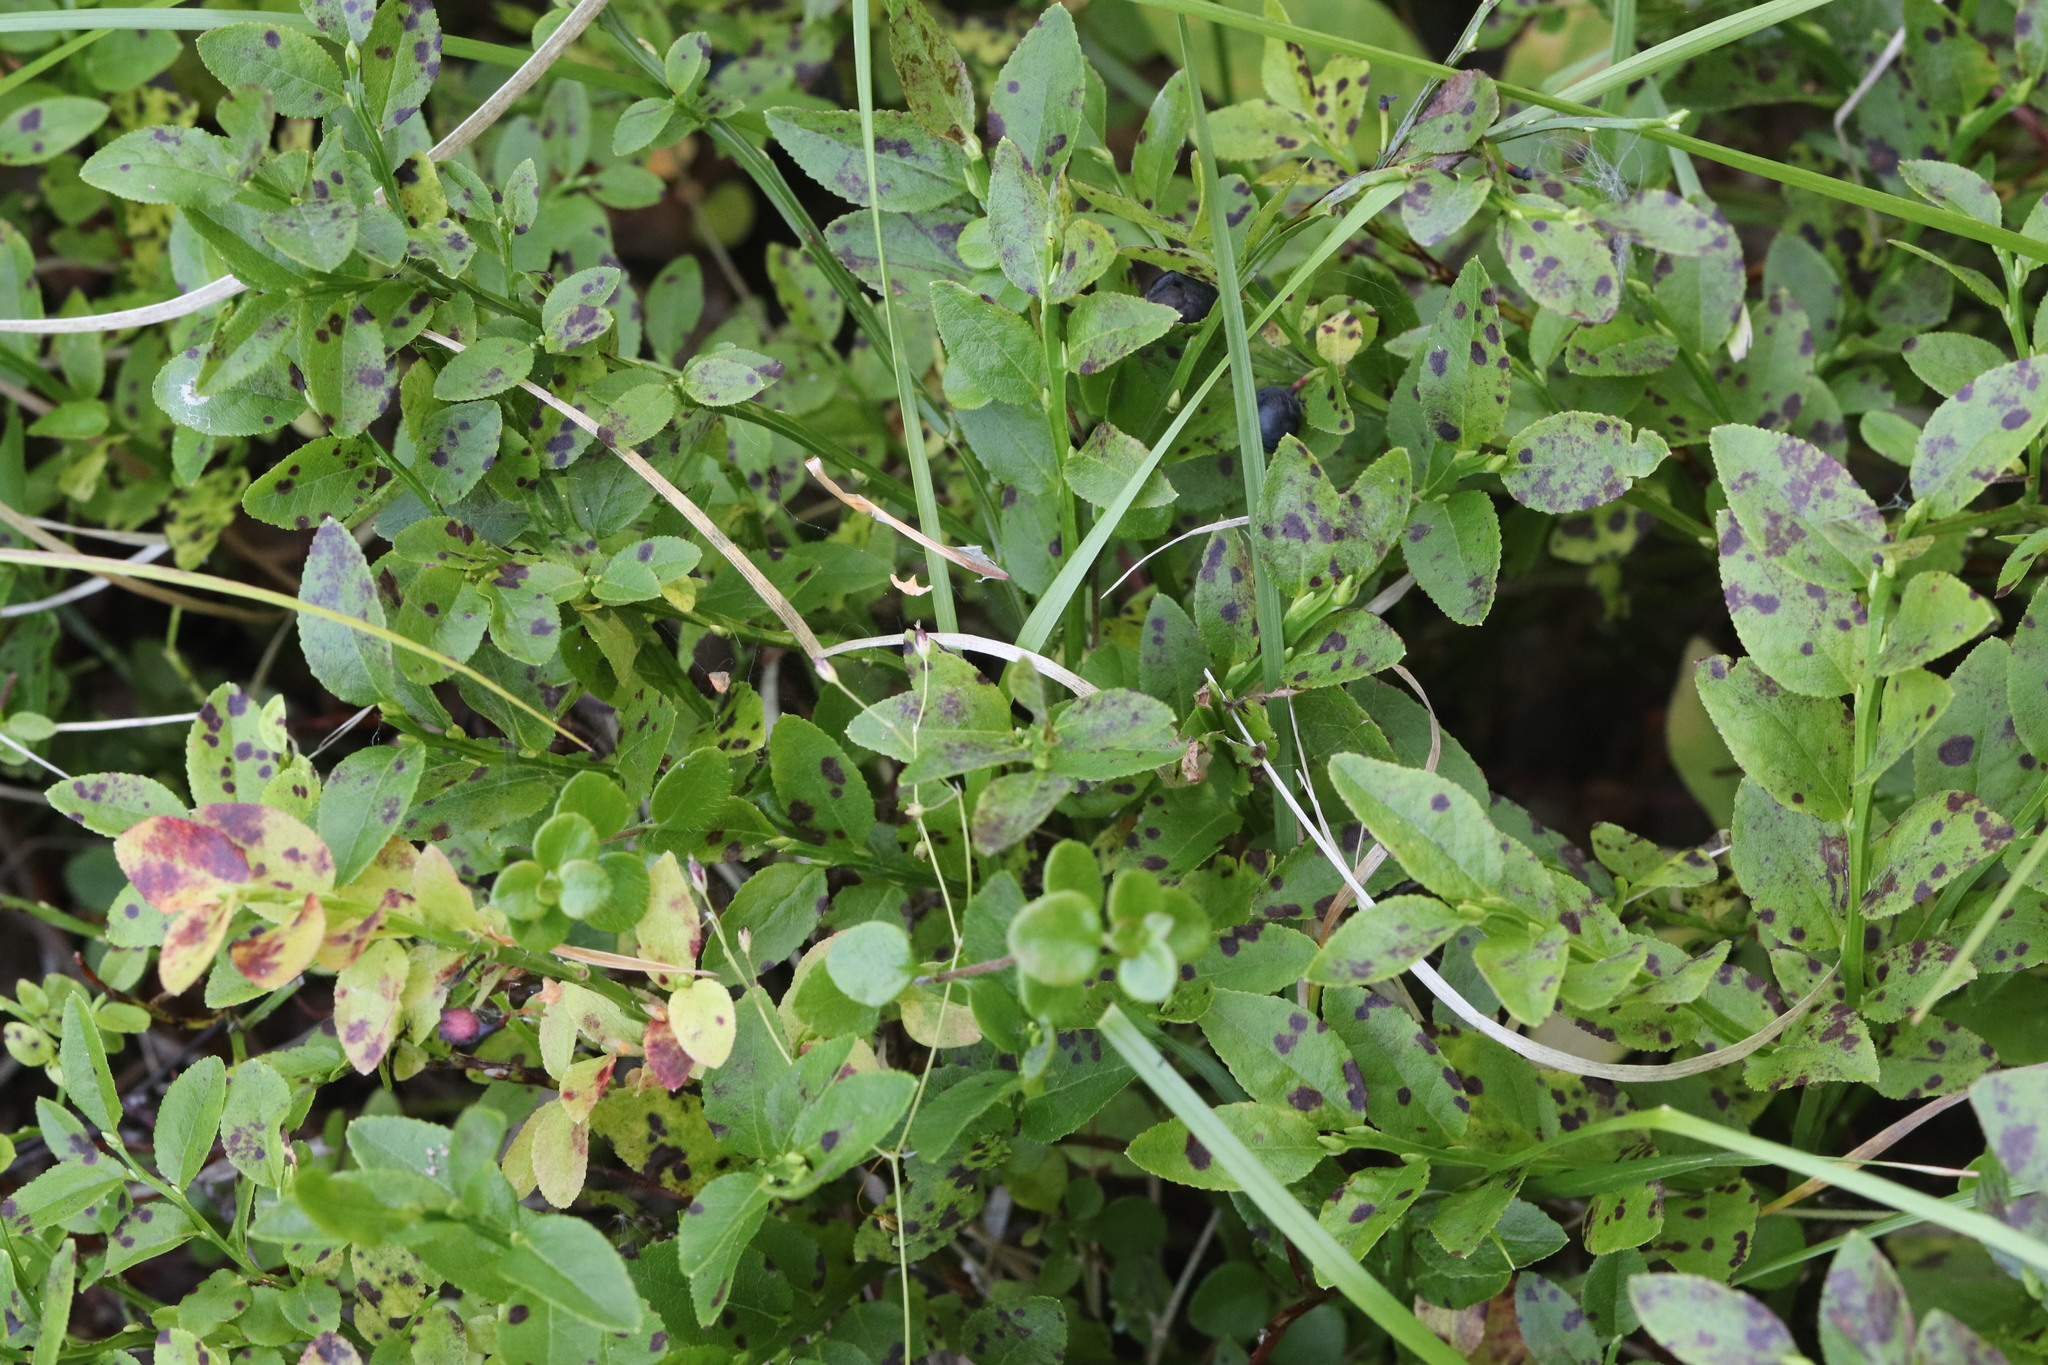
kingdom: Plantae
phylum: Tracheophyta
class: Magnoliopsida
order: Ericales
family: Ericaceae
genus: Vaccinium
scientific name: Vaccinium myrtillus
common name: Bilberry
